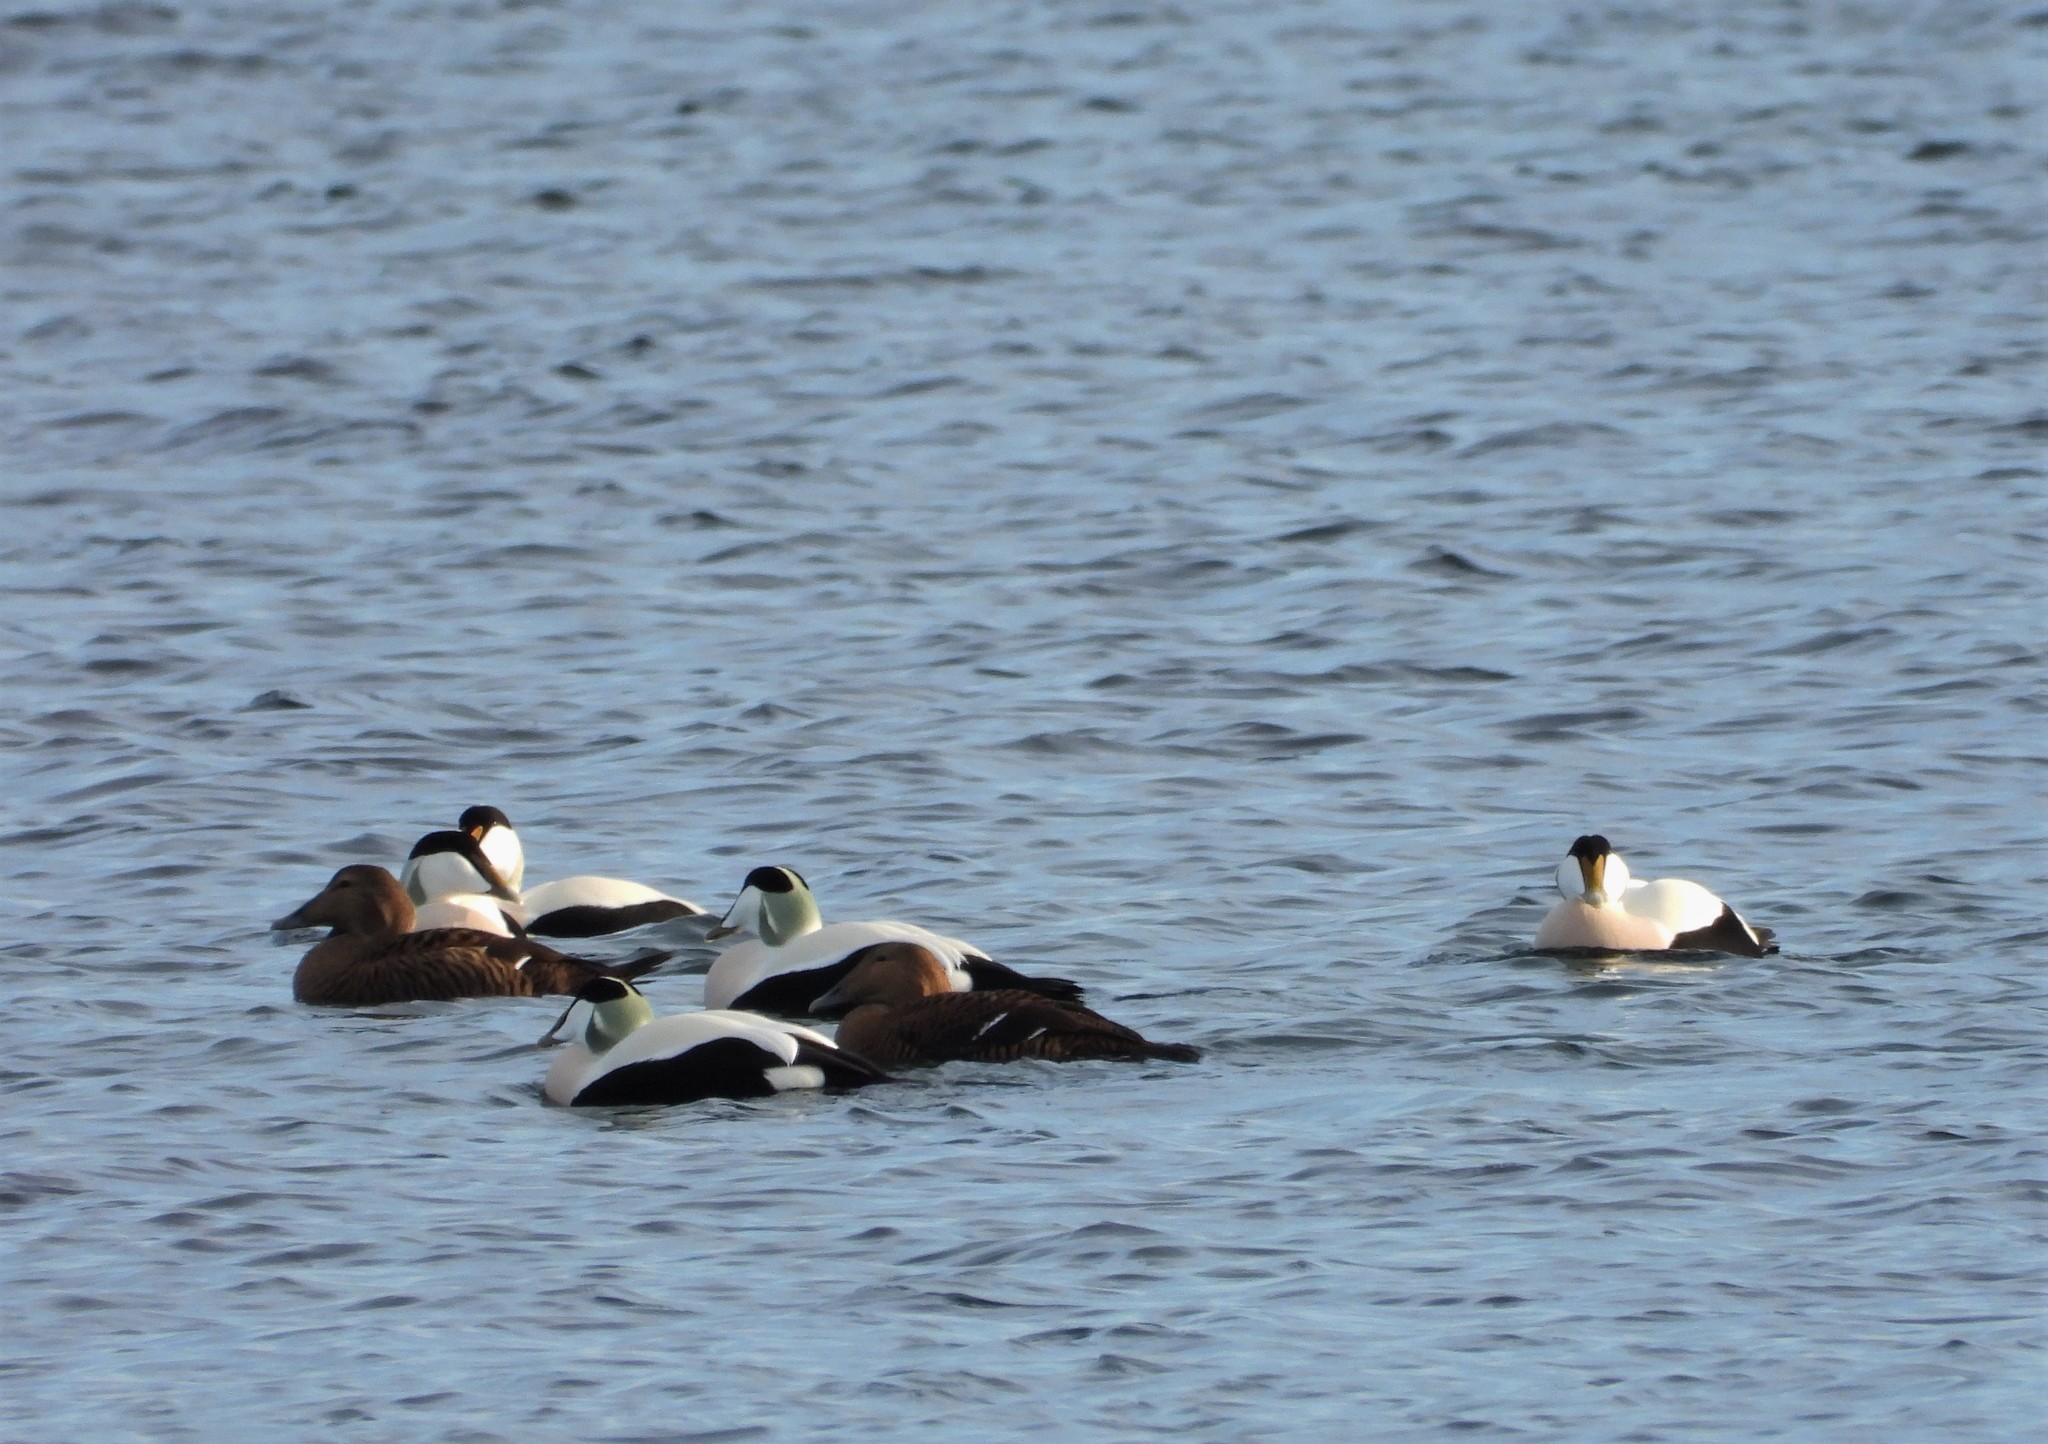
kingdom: Animalia
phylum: Chordata
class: Aves
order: Anseriformes
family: Anatidae
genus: Somateria
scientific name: Somateria mollissima
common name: Common eider
